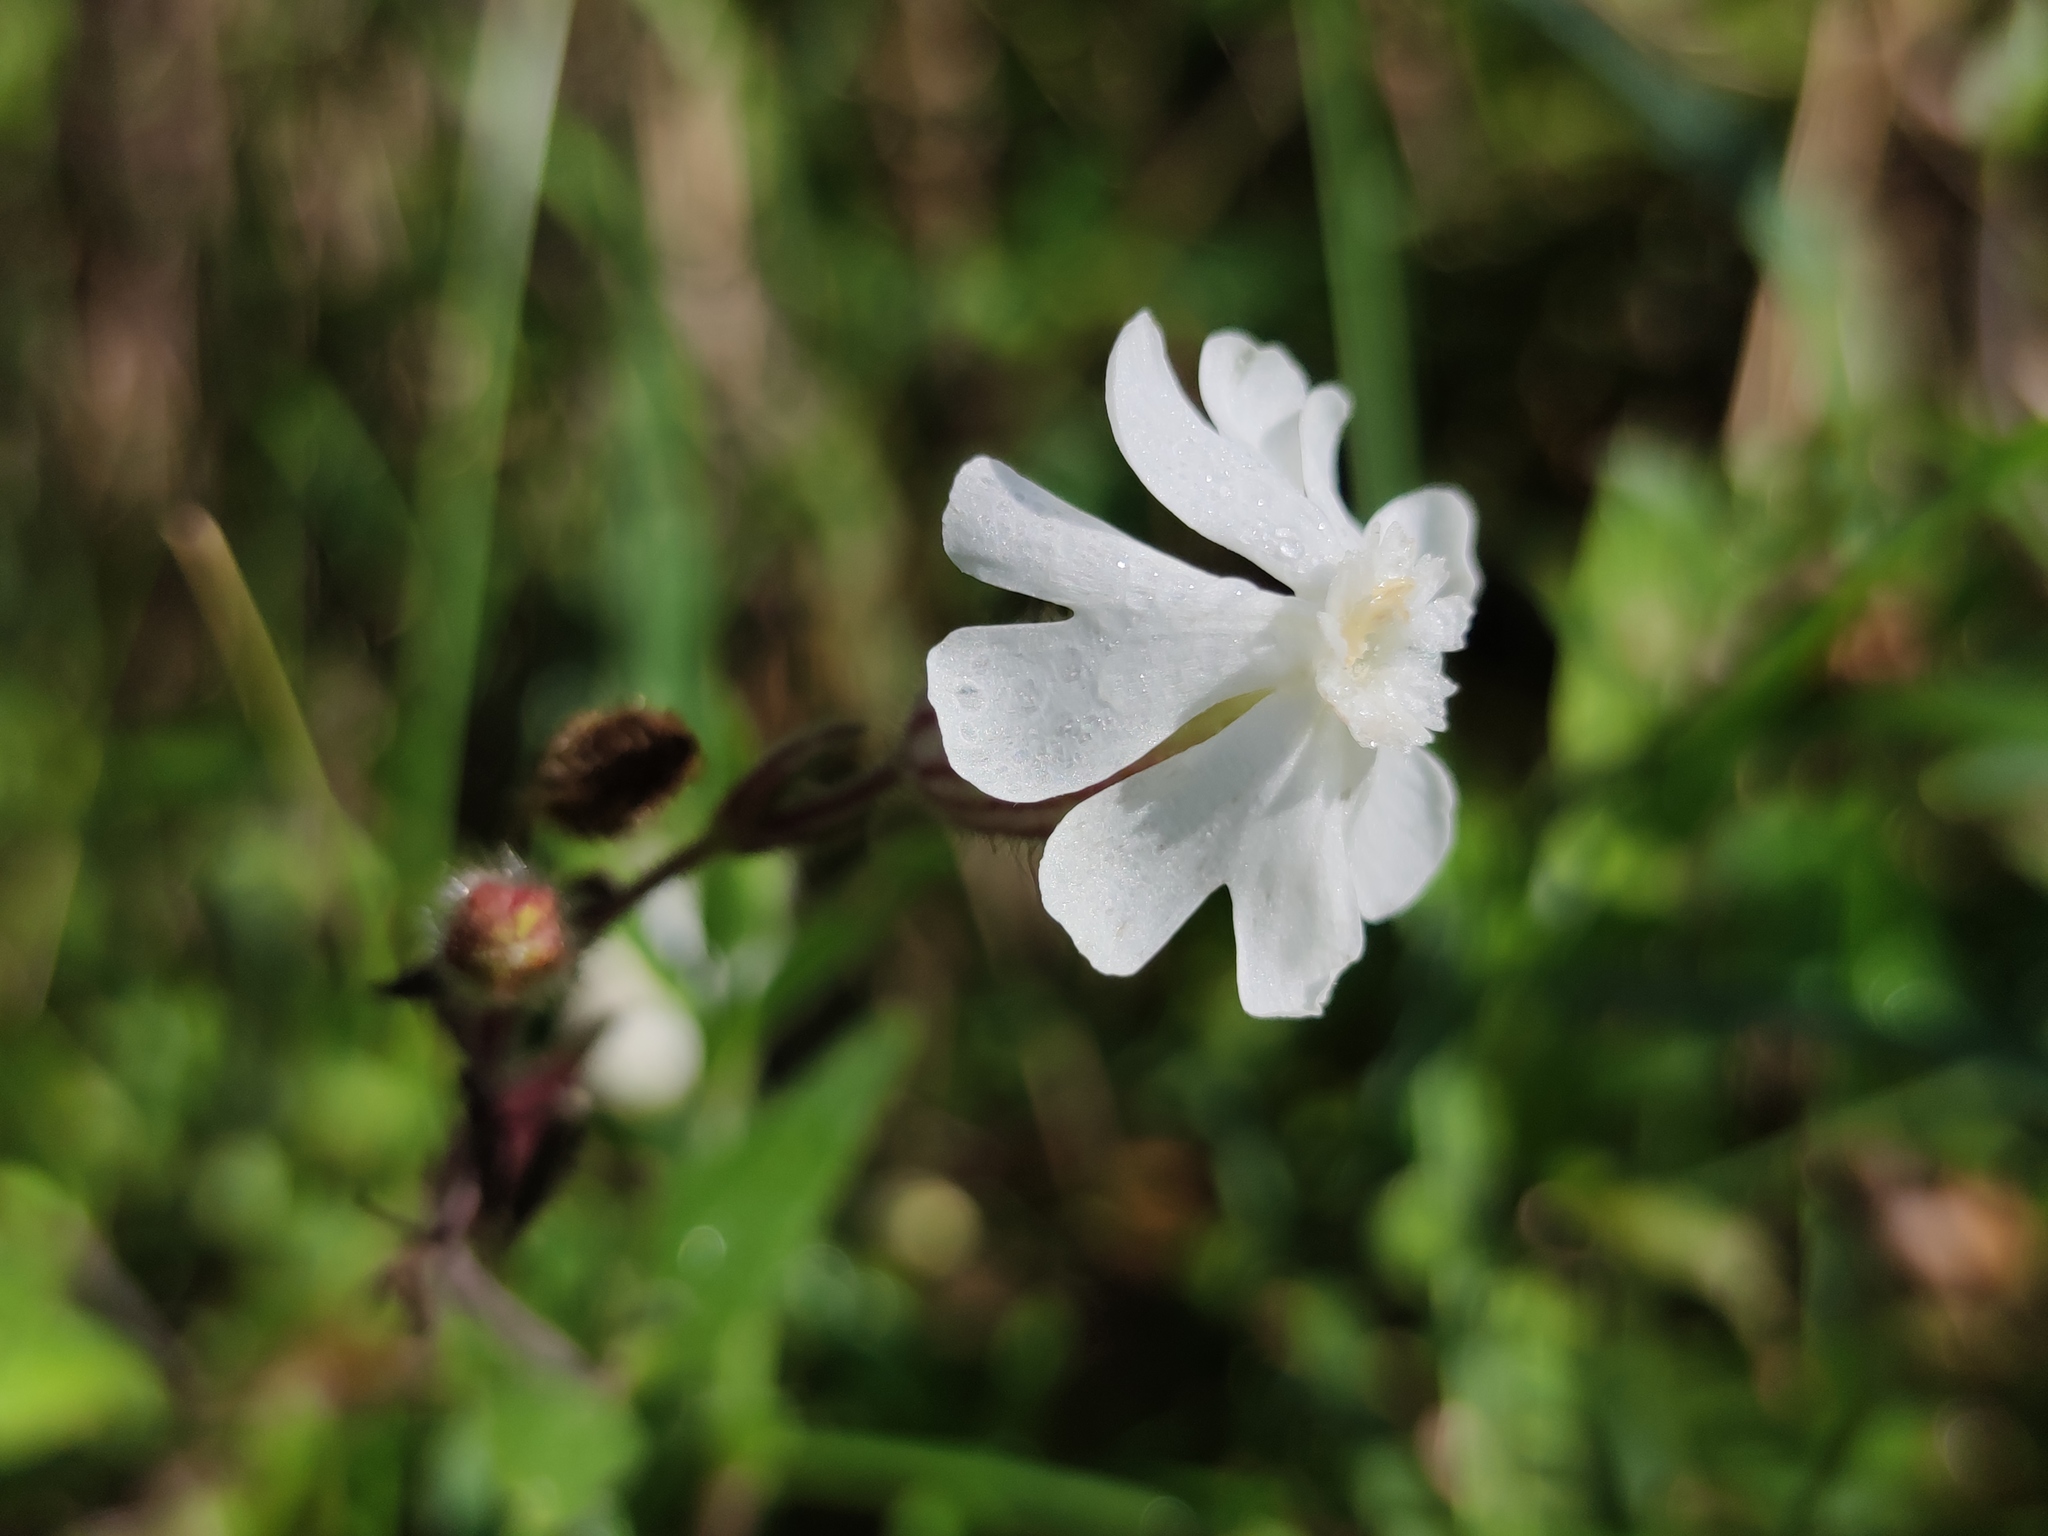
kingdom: Plantae
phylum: Tracheophyta
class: Magnoliopsida
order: Caryophyllales
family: Caryophyllaceae
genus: Silene
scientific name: Silene latifolia
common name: White campion
